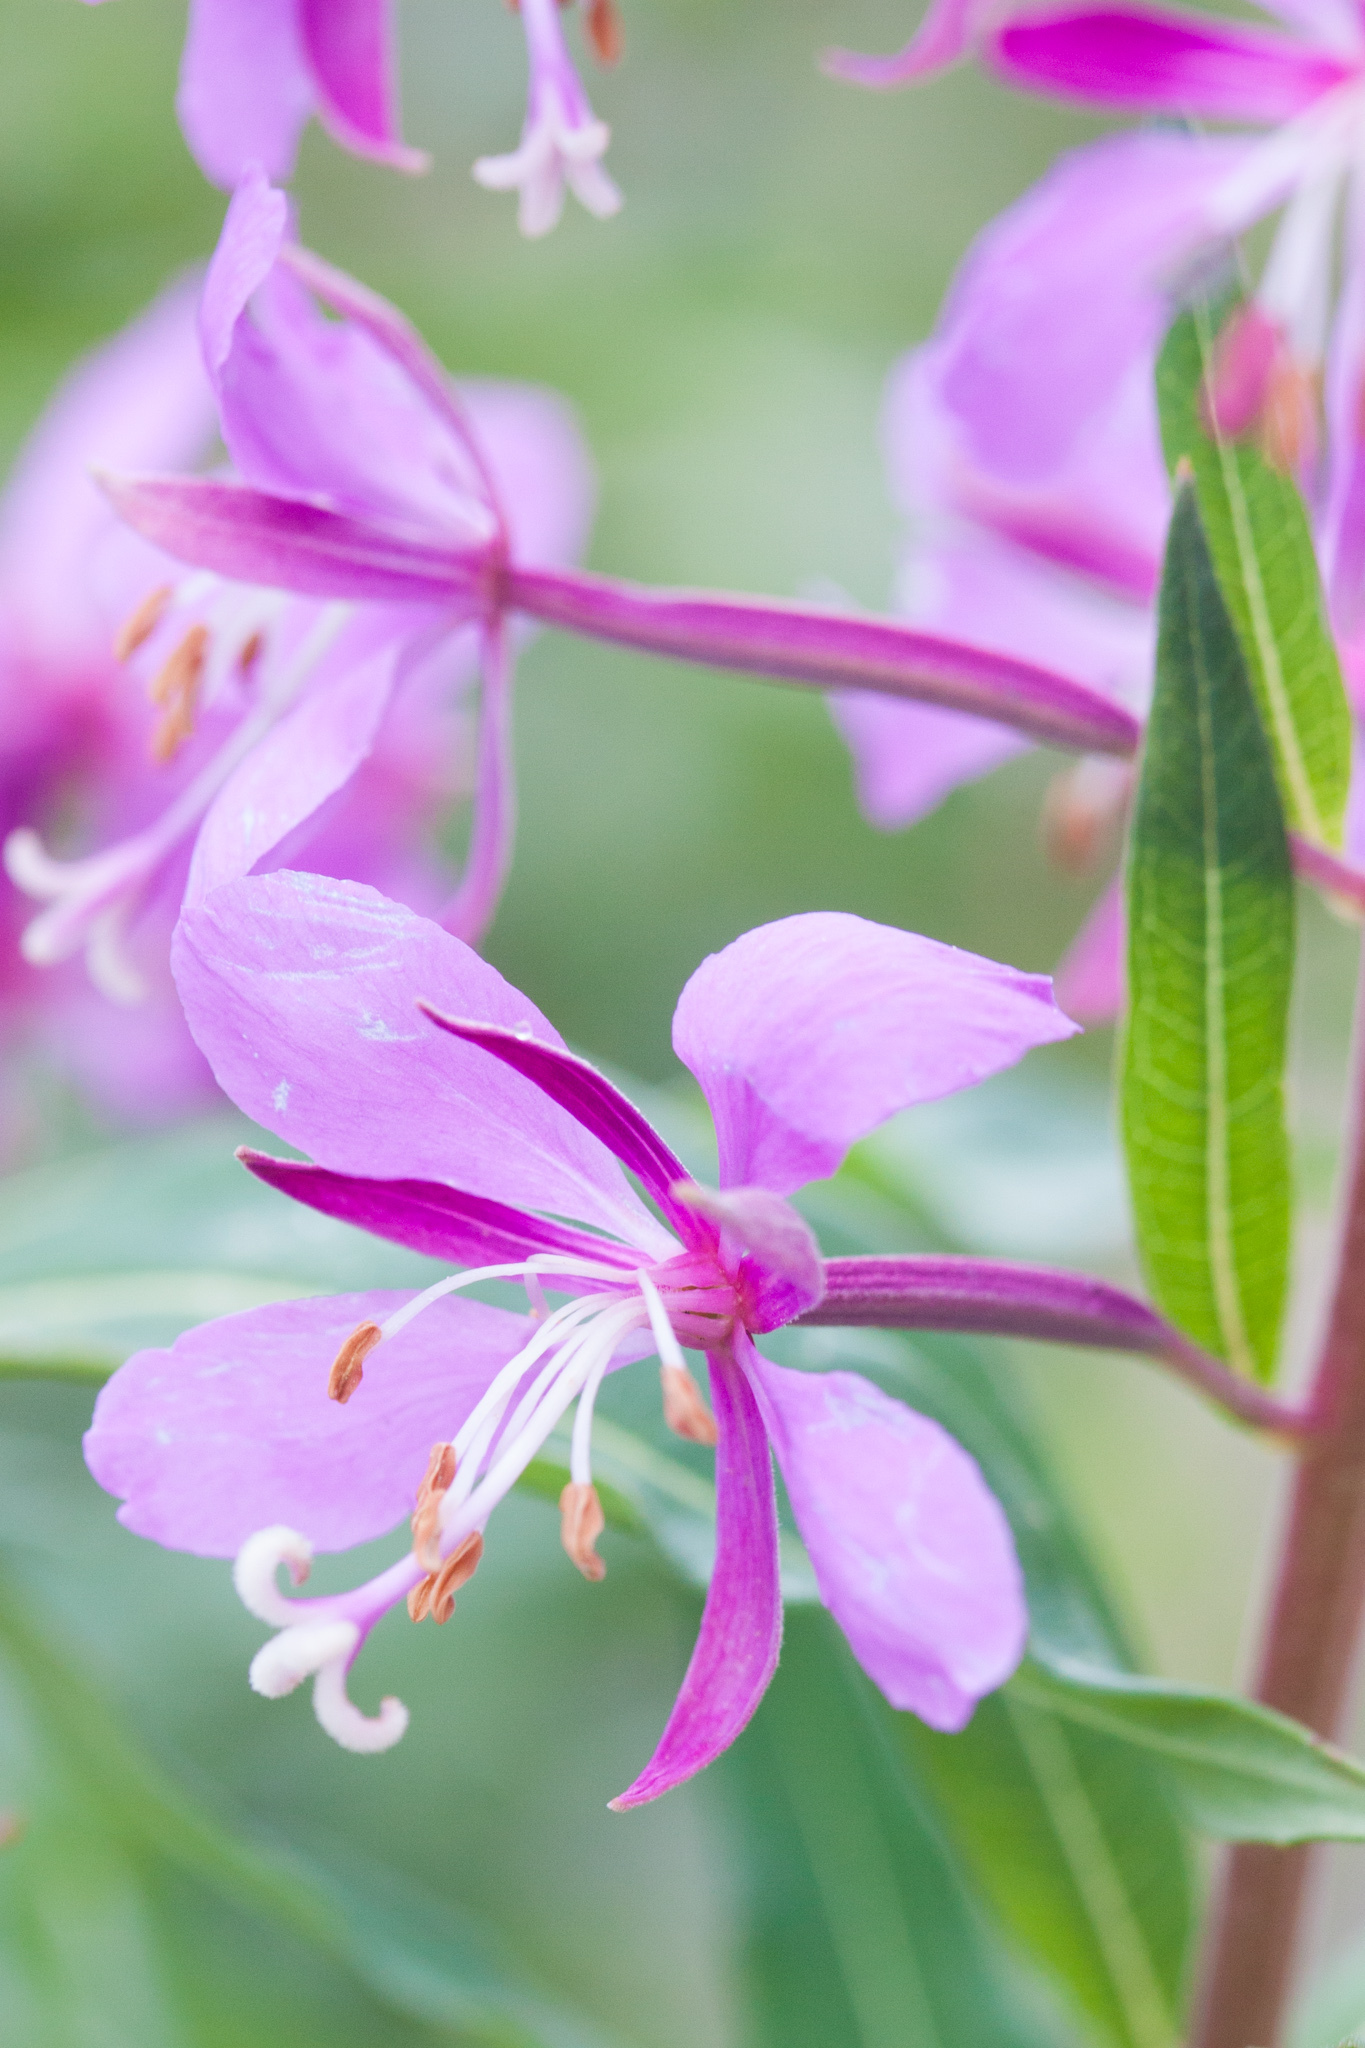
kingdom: Plantae
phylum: Tracheophyta
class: Magnoliopsida
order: Myrtales
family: Onagraceae
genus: Chamaenerion
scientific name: Chamaenerion angustifolium
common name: Fireweed
